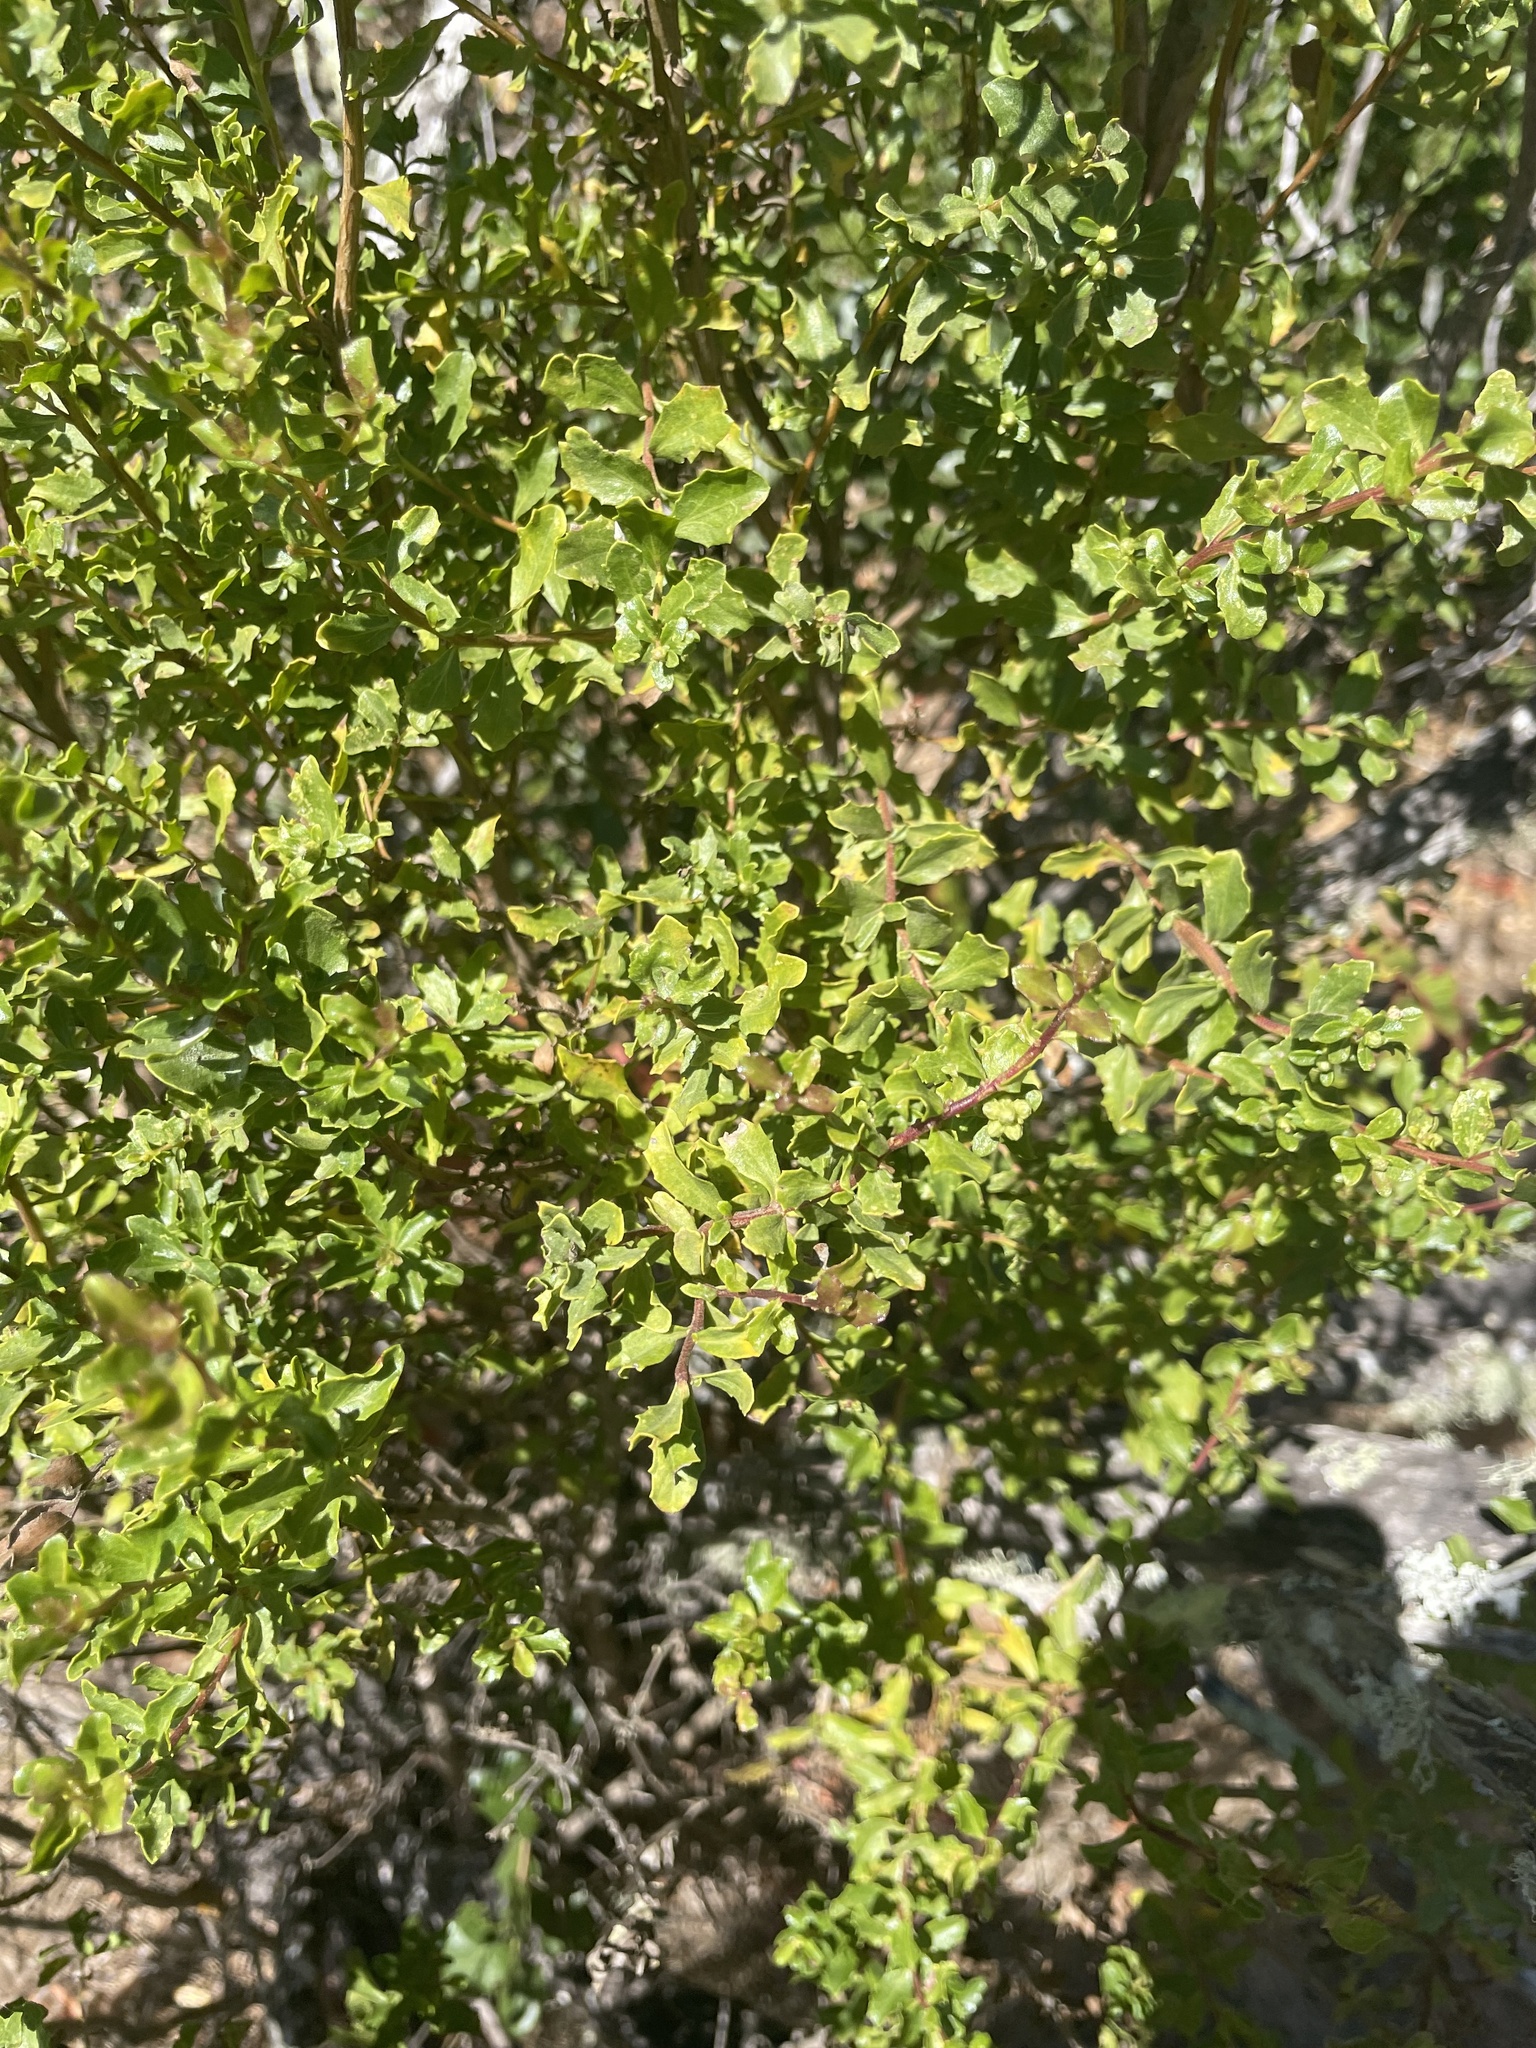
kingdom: Fungi
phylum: Basidiomycota
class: Pucciniomycetes
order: Pucciniales
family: Pucciniaceae
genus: Eriosporangium
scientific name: Eriosporangium evadens
